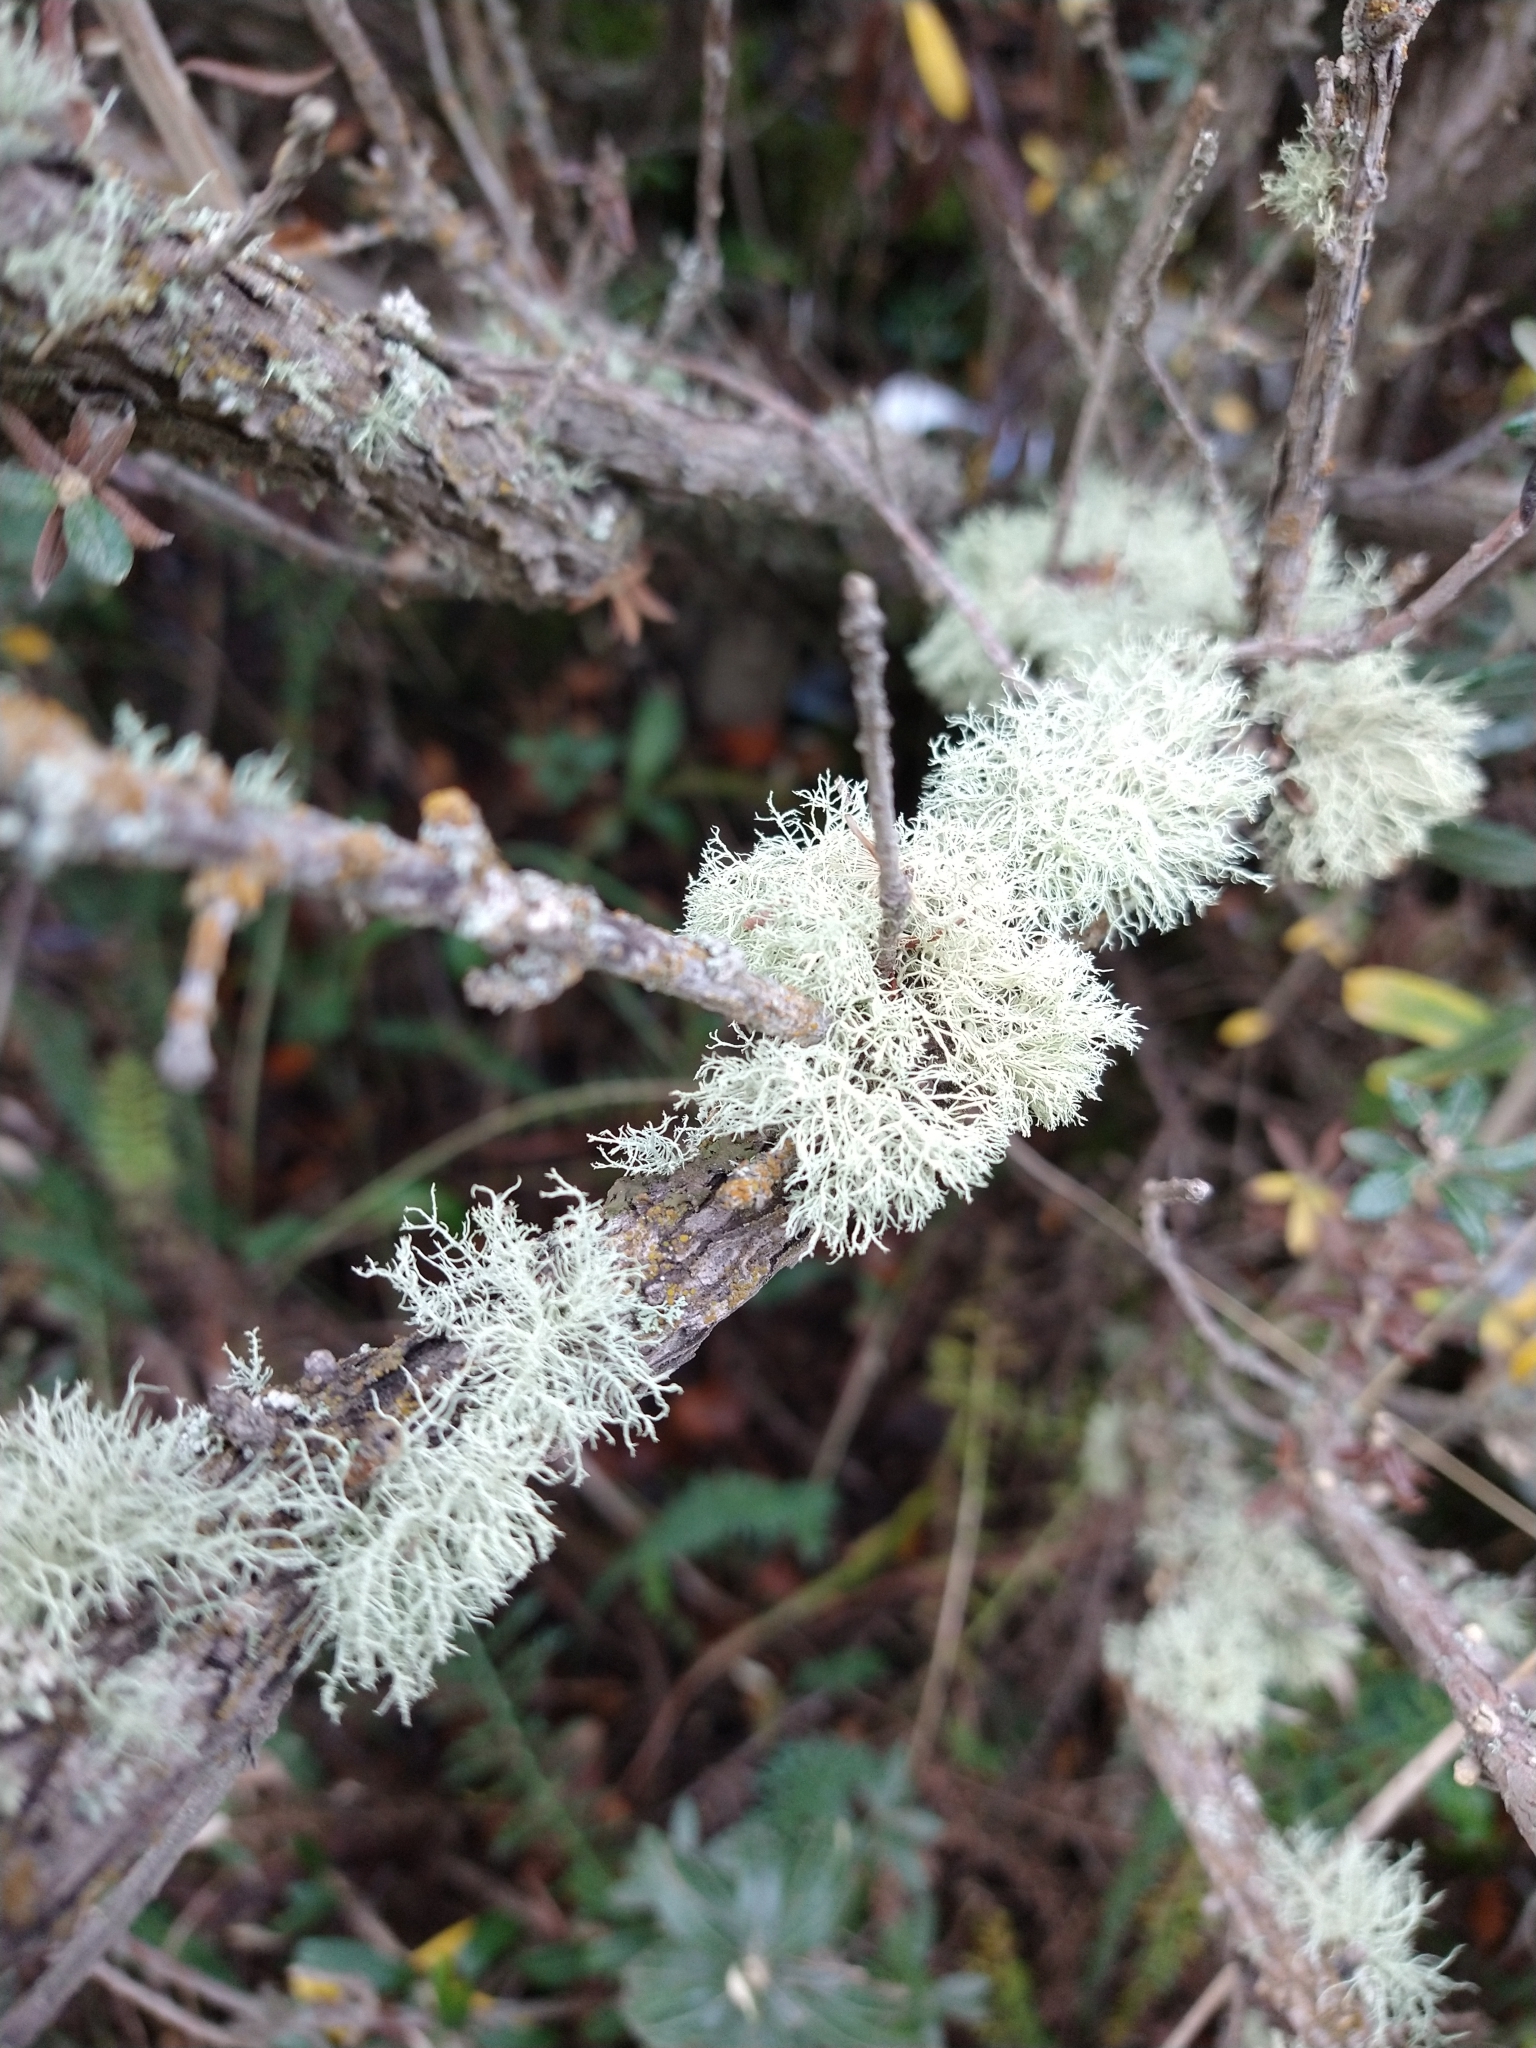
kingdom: Fungi
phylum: Ascomycota
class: Lecanoromycetes
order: Lecanorales
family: Parmeliaceae
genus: Usnea
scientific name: Usnea
